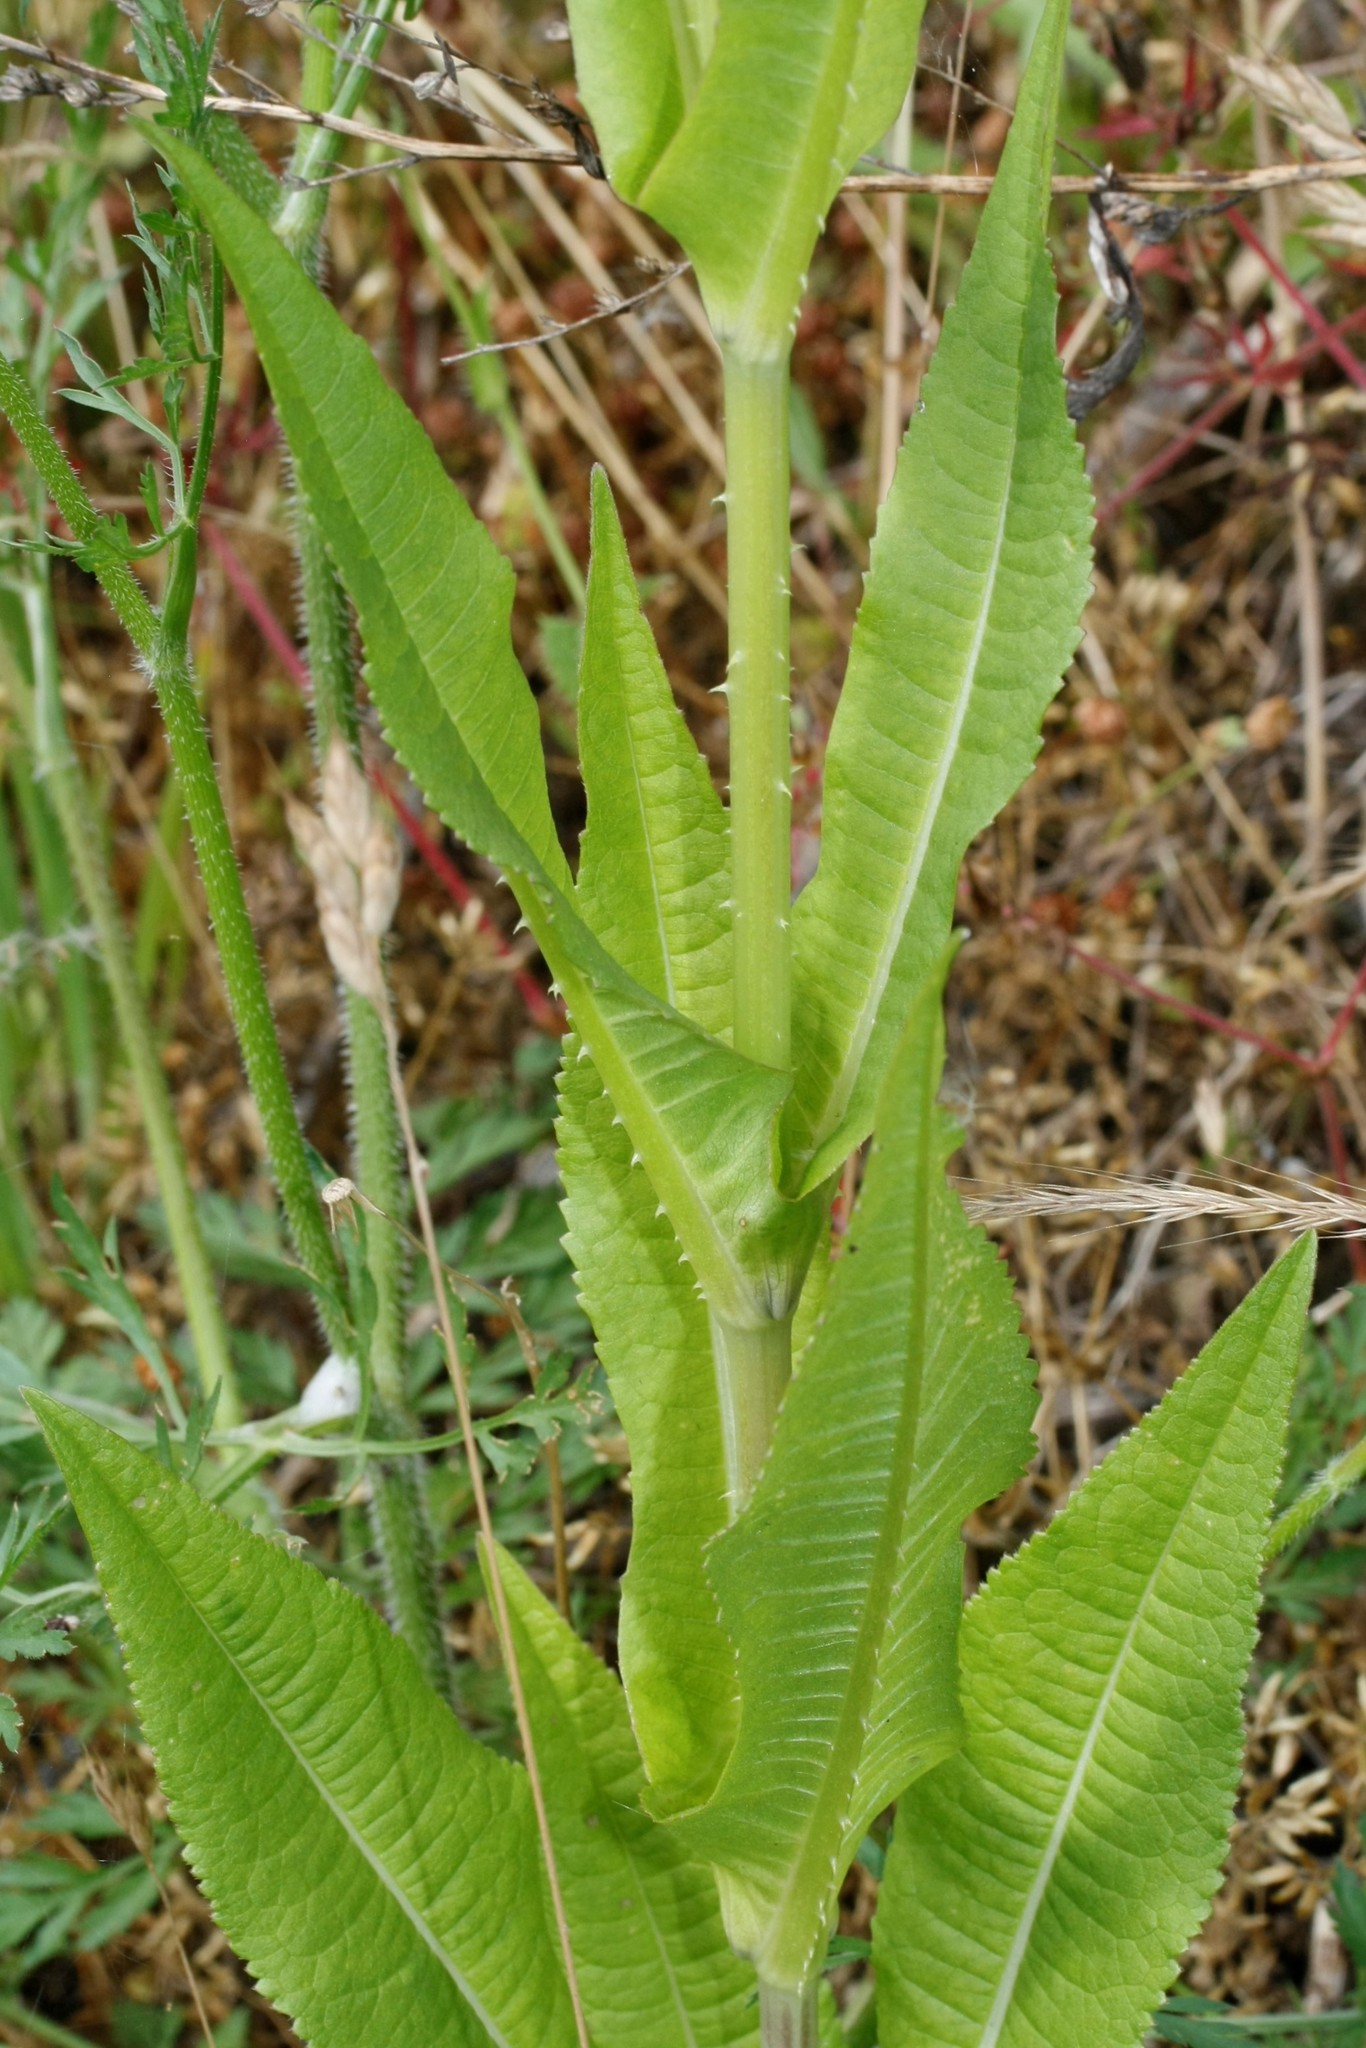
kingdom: Plantae
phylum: Tracheophyta
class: Magnoliopsida
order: Dipsacales
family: Caprifoliaceae
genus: Dipsacus
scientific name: Dipsacus fullonum
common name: Teasel
